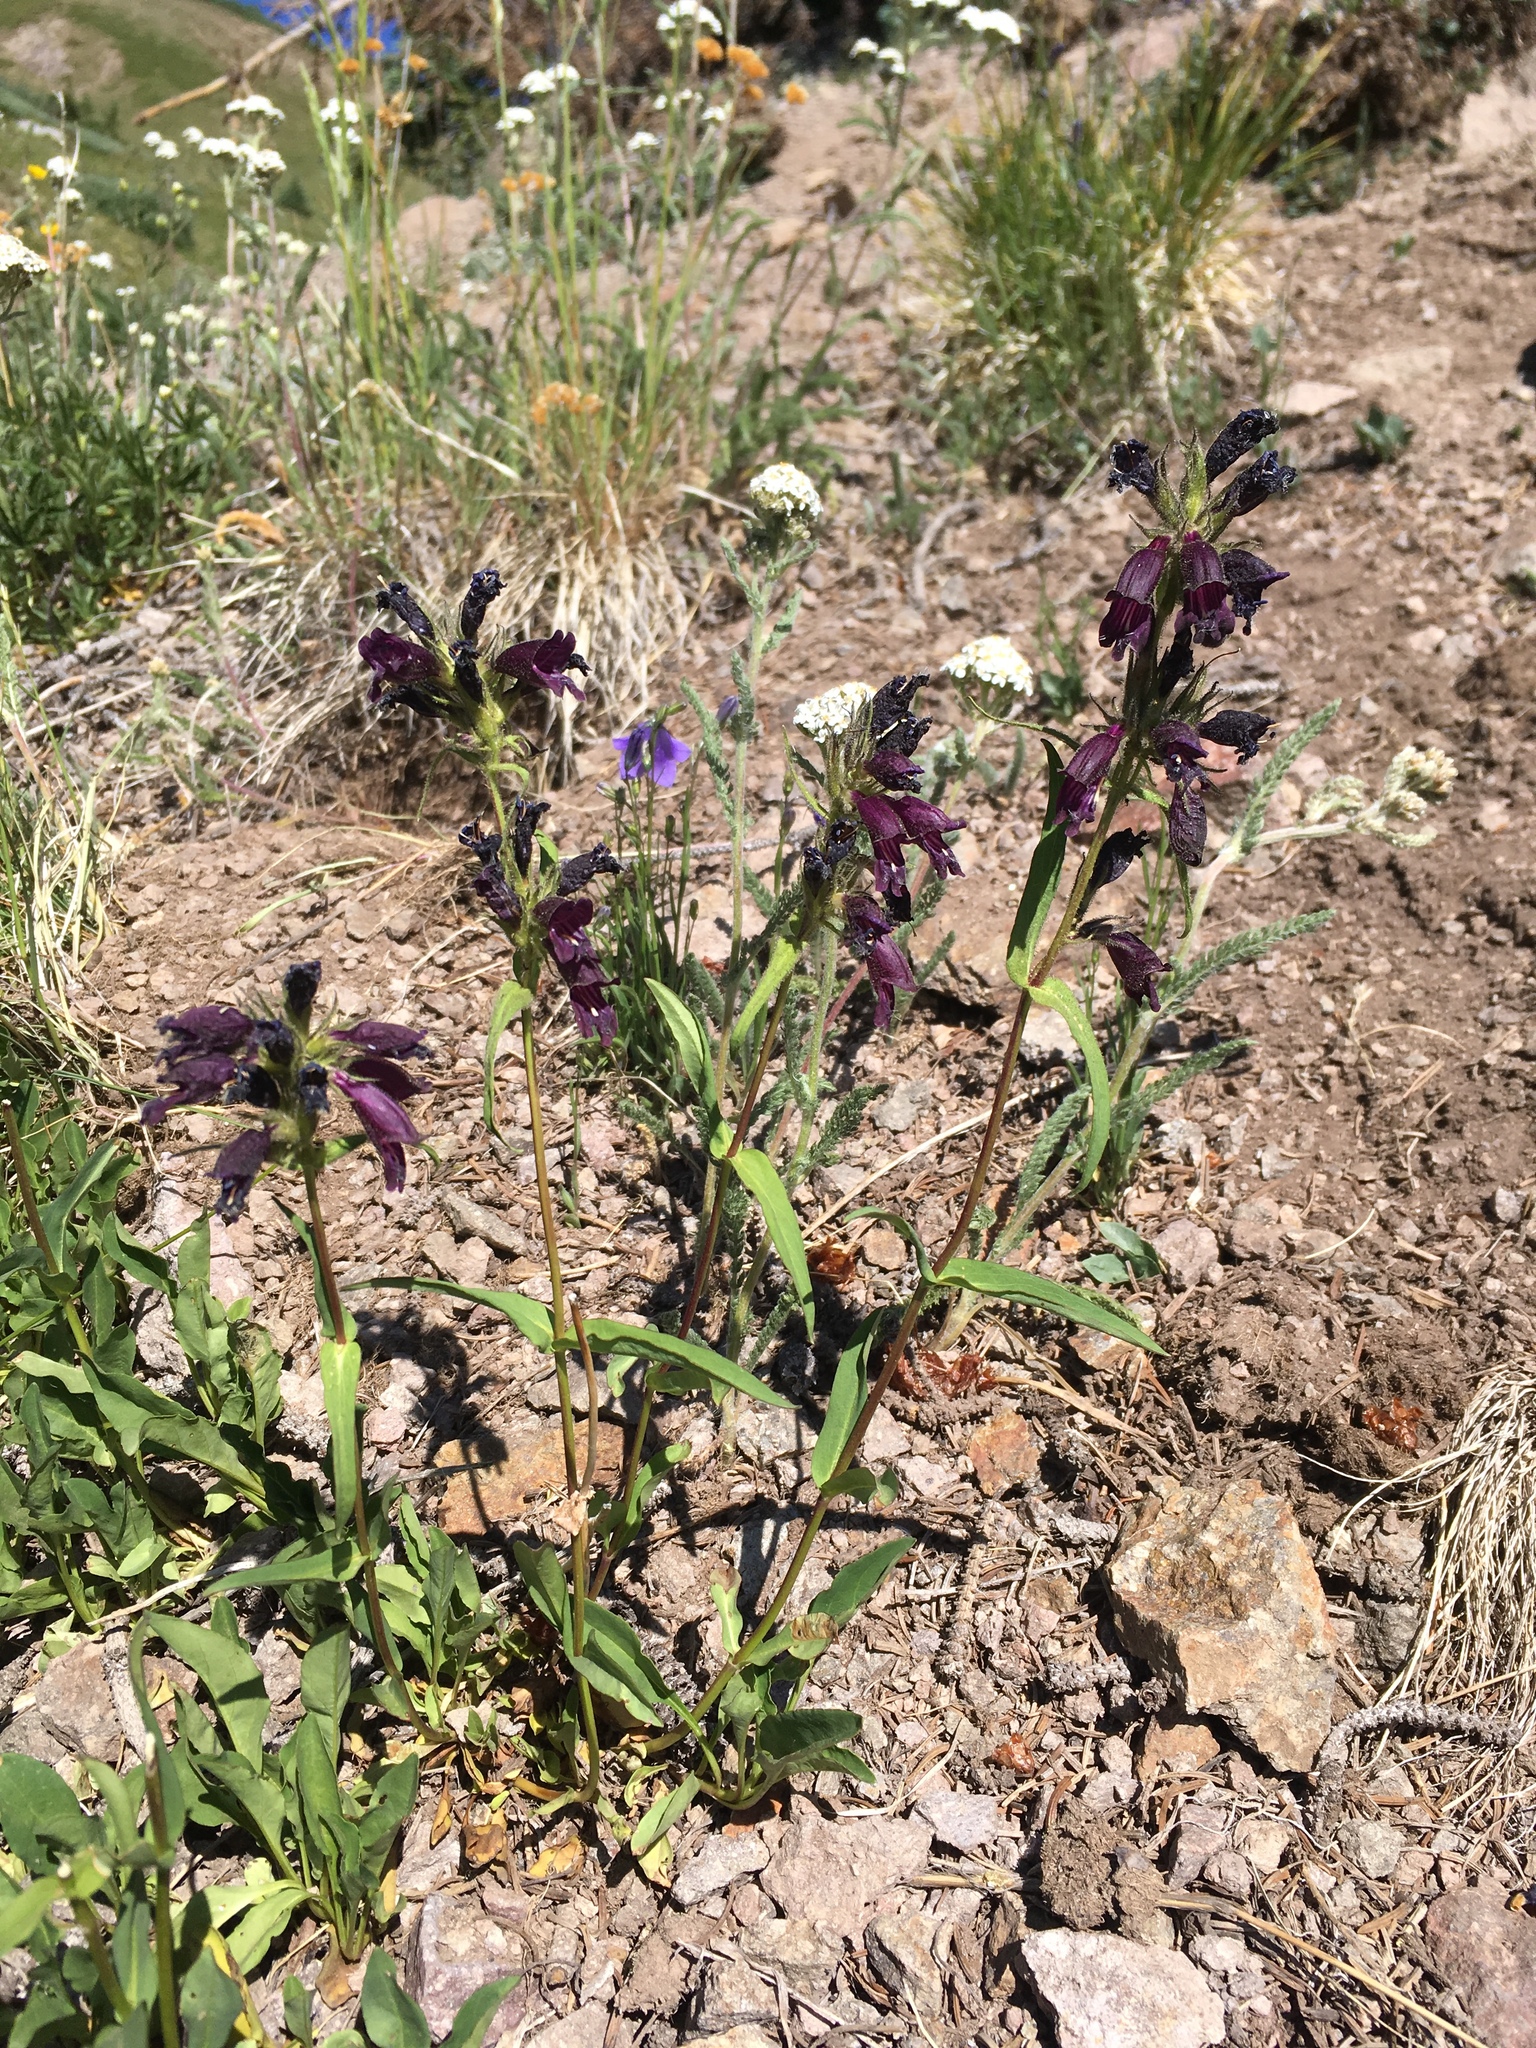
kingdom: Plantae
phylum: Tracheophyta
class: Magnoliopsida
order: Lamiales
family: Plantaginaceae
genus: Penstemon
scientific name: Penstemon whippleanus
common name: Whipple's penstemon
